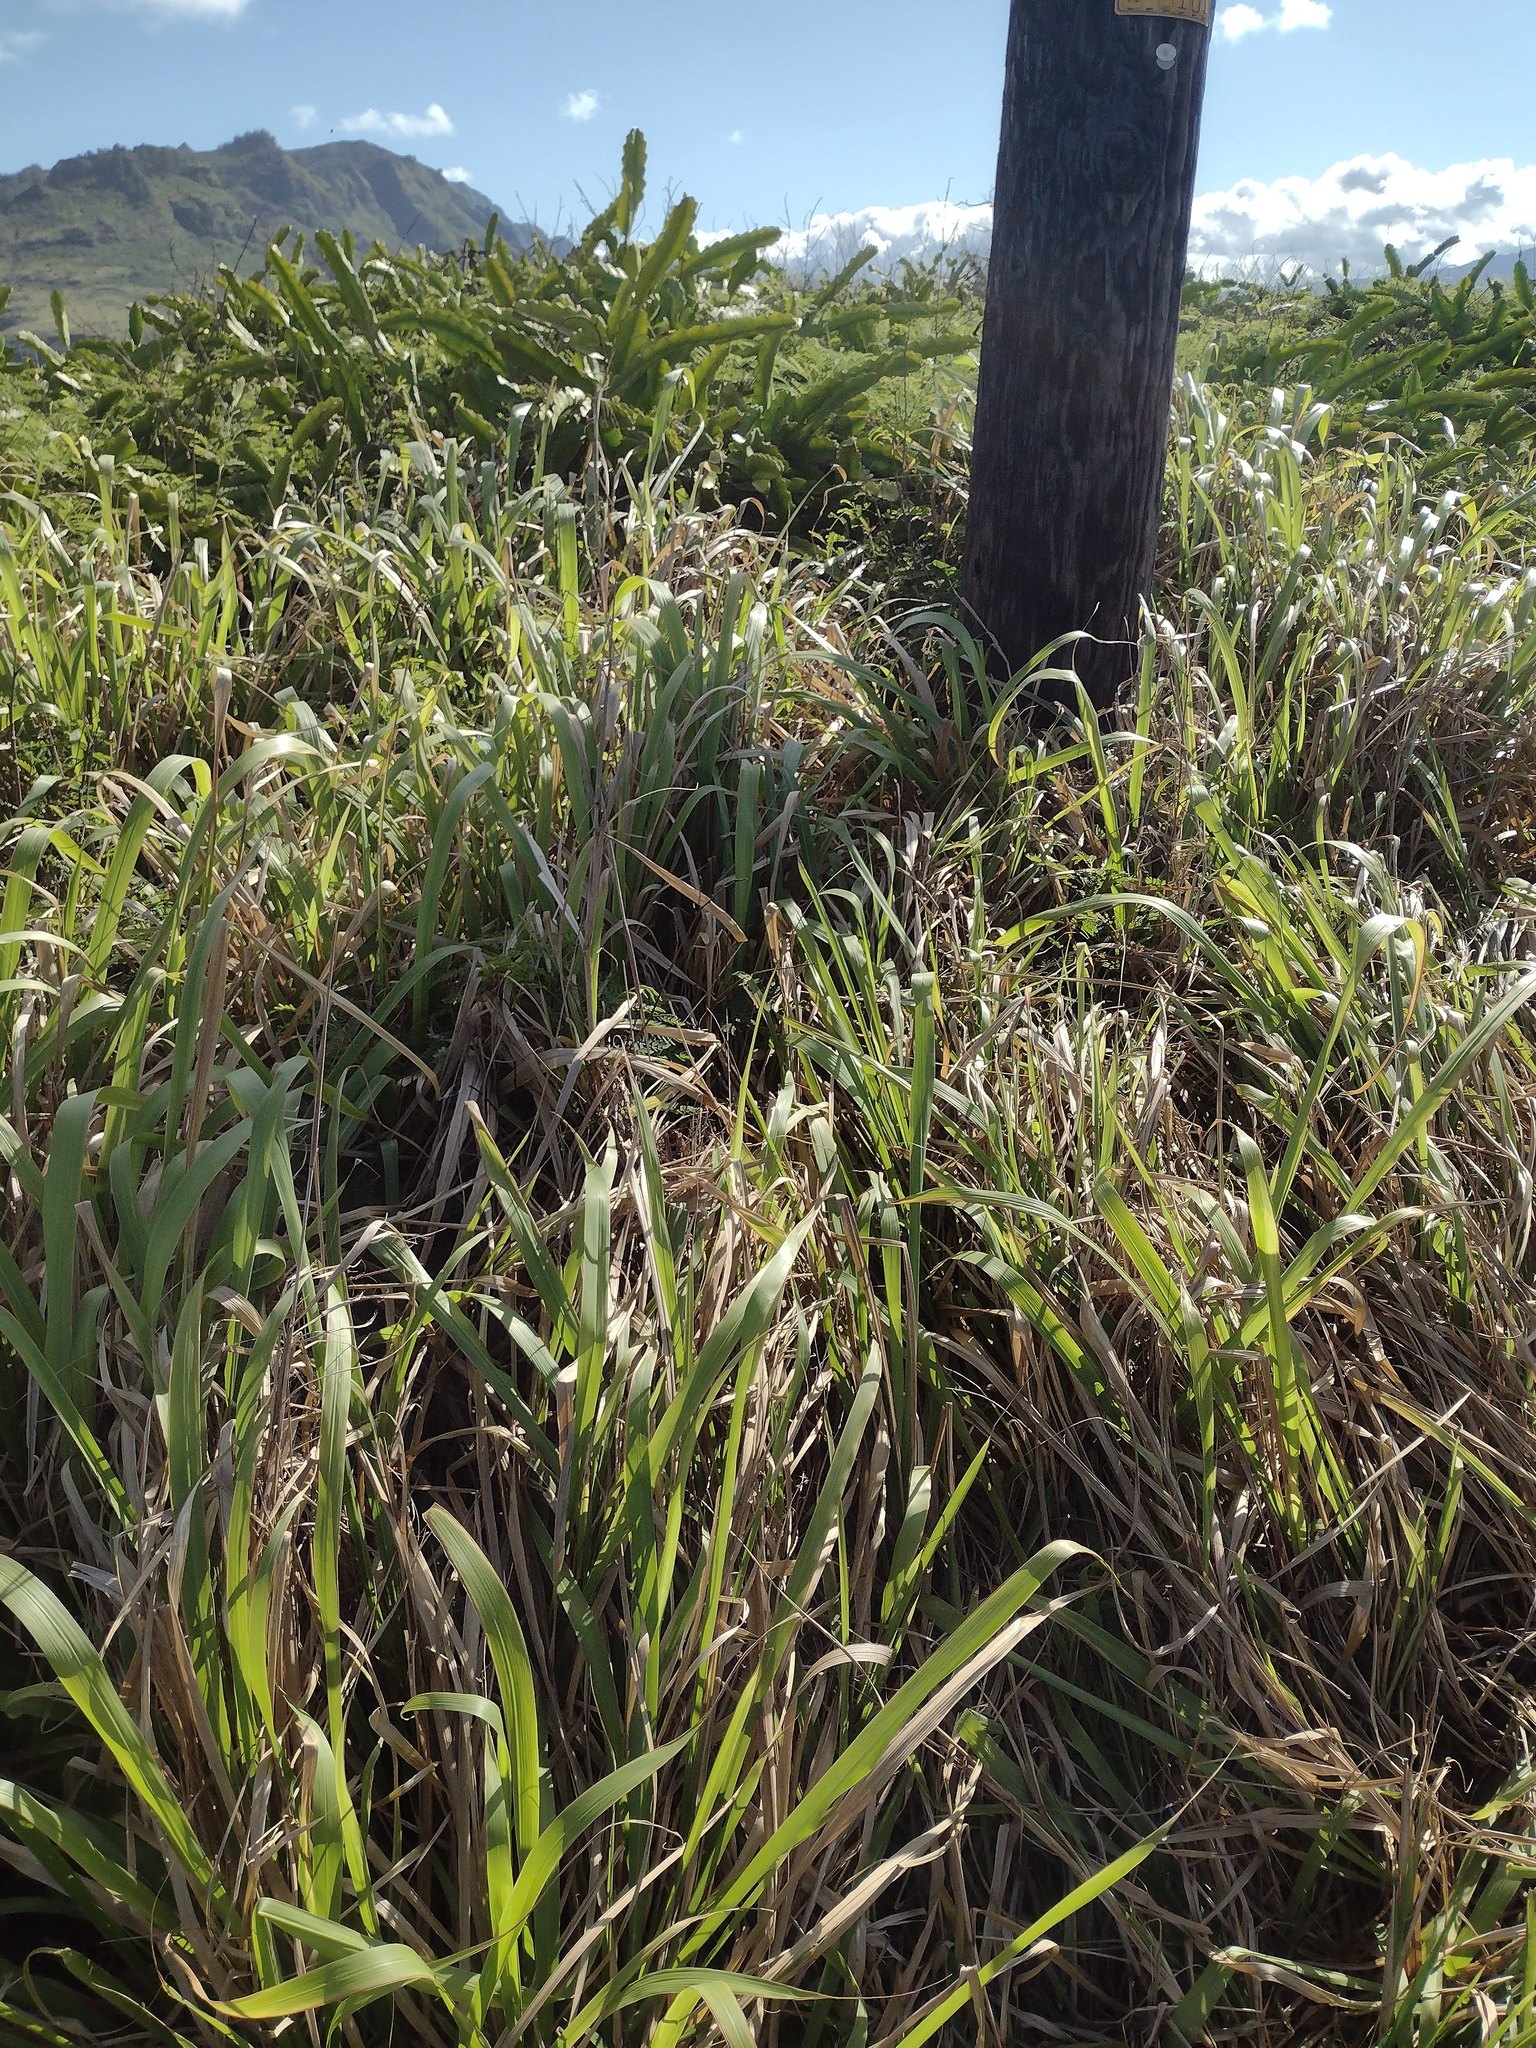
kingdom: Plantae
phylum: Tracheophyta
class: Liliopsida
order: Poales
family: Poaceae
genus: Megathyrsus
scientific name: Megathyrsus maximus
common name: Guineagrass
